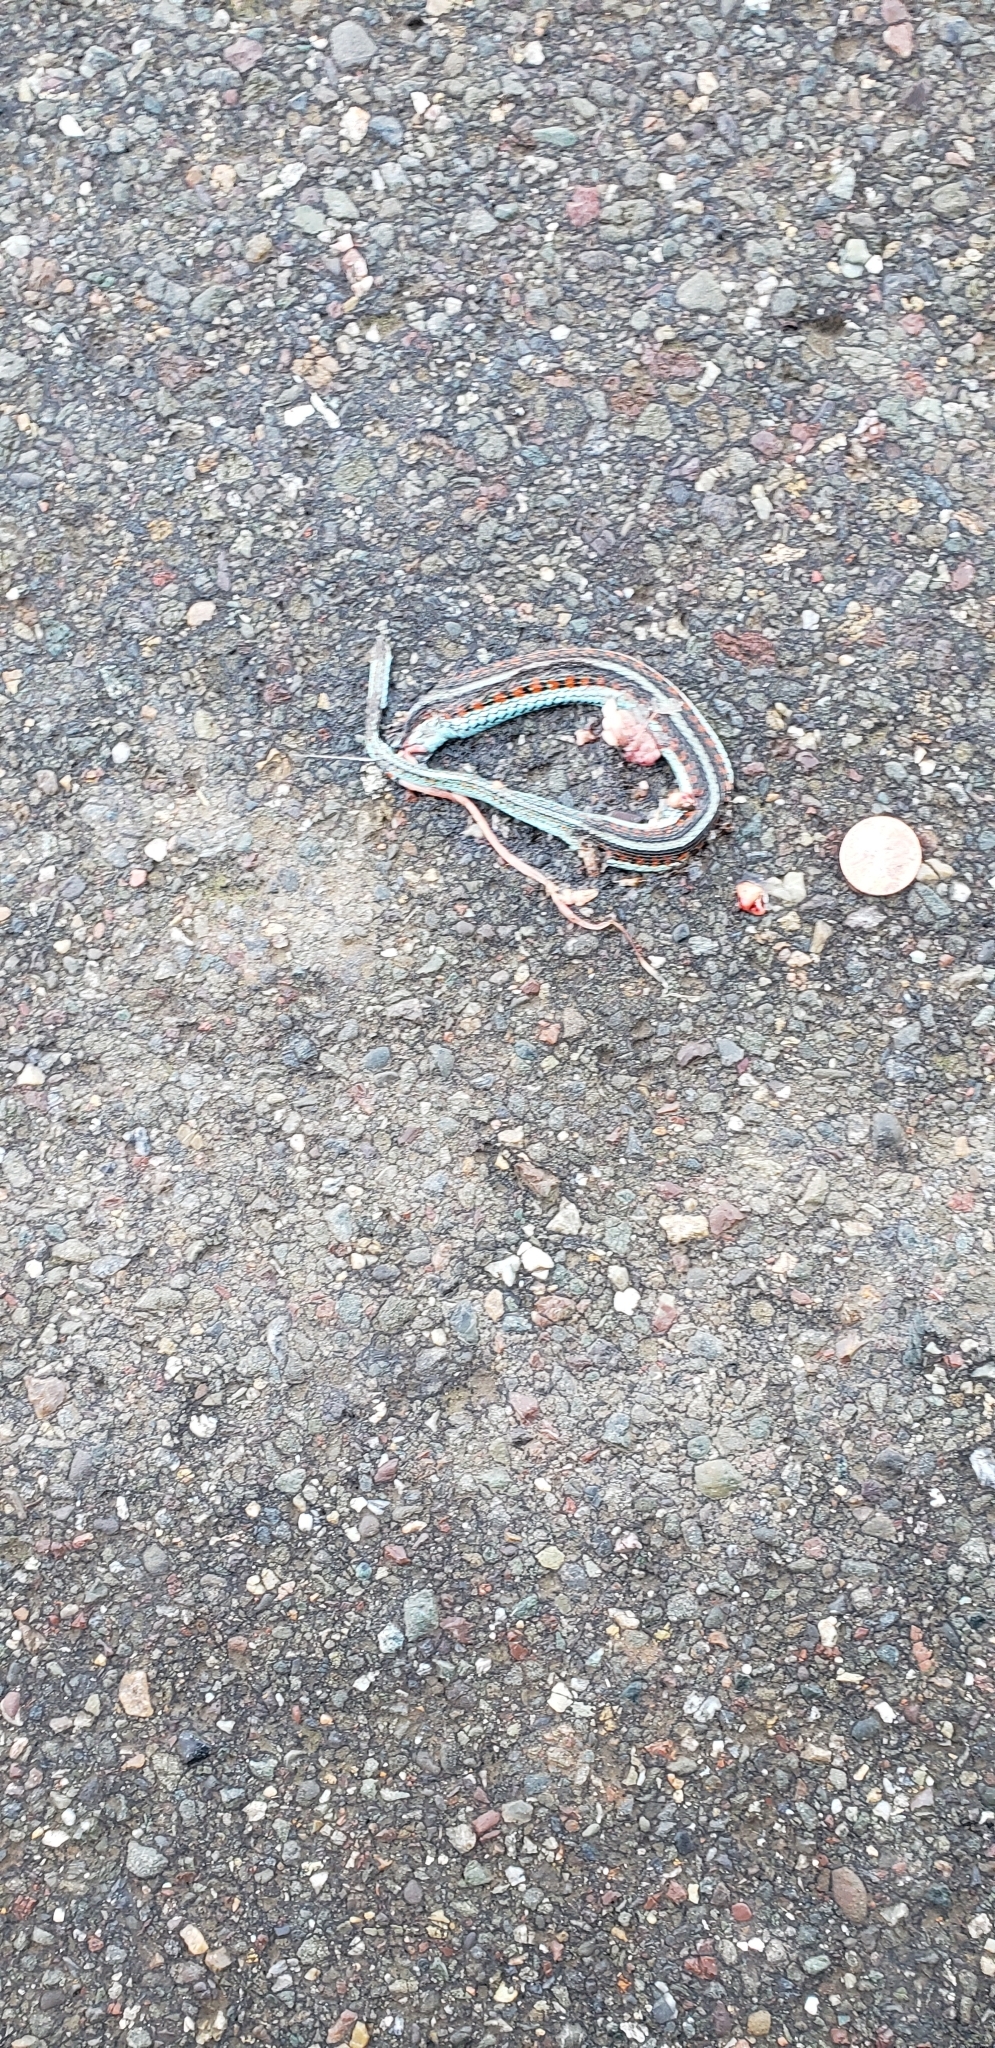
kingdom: Animalia
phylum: Chordata
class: Squamata
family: Colubridae
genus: Thamnophis
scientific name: Thamnophis sirtalis
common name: Common garter snake
